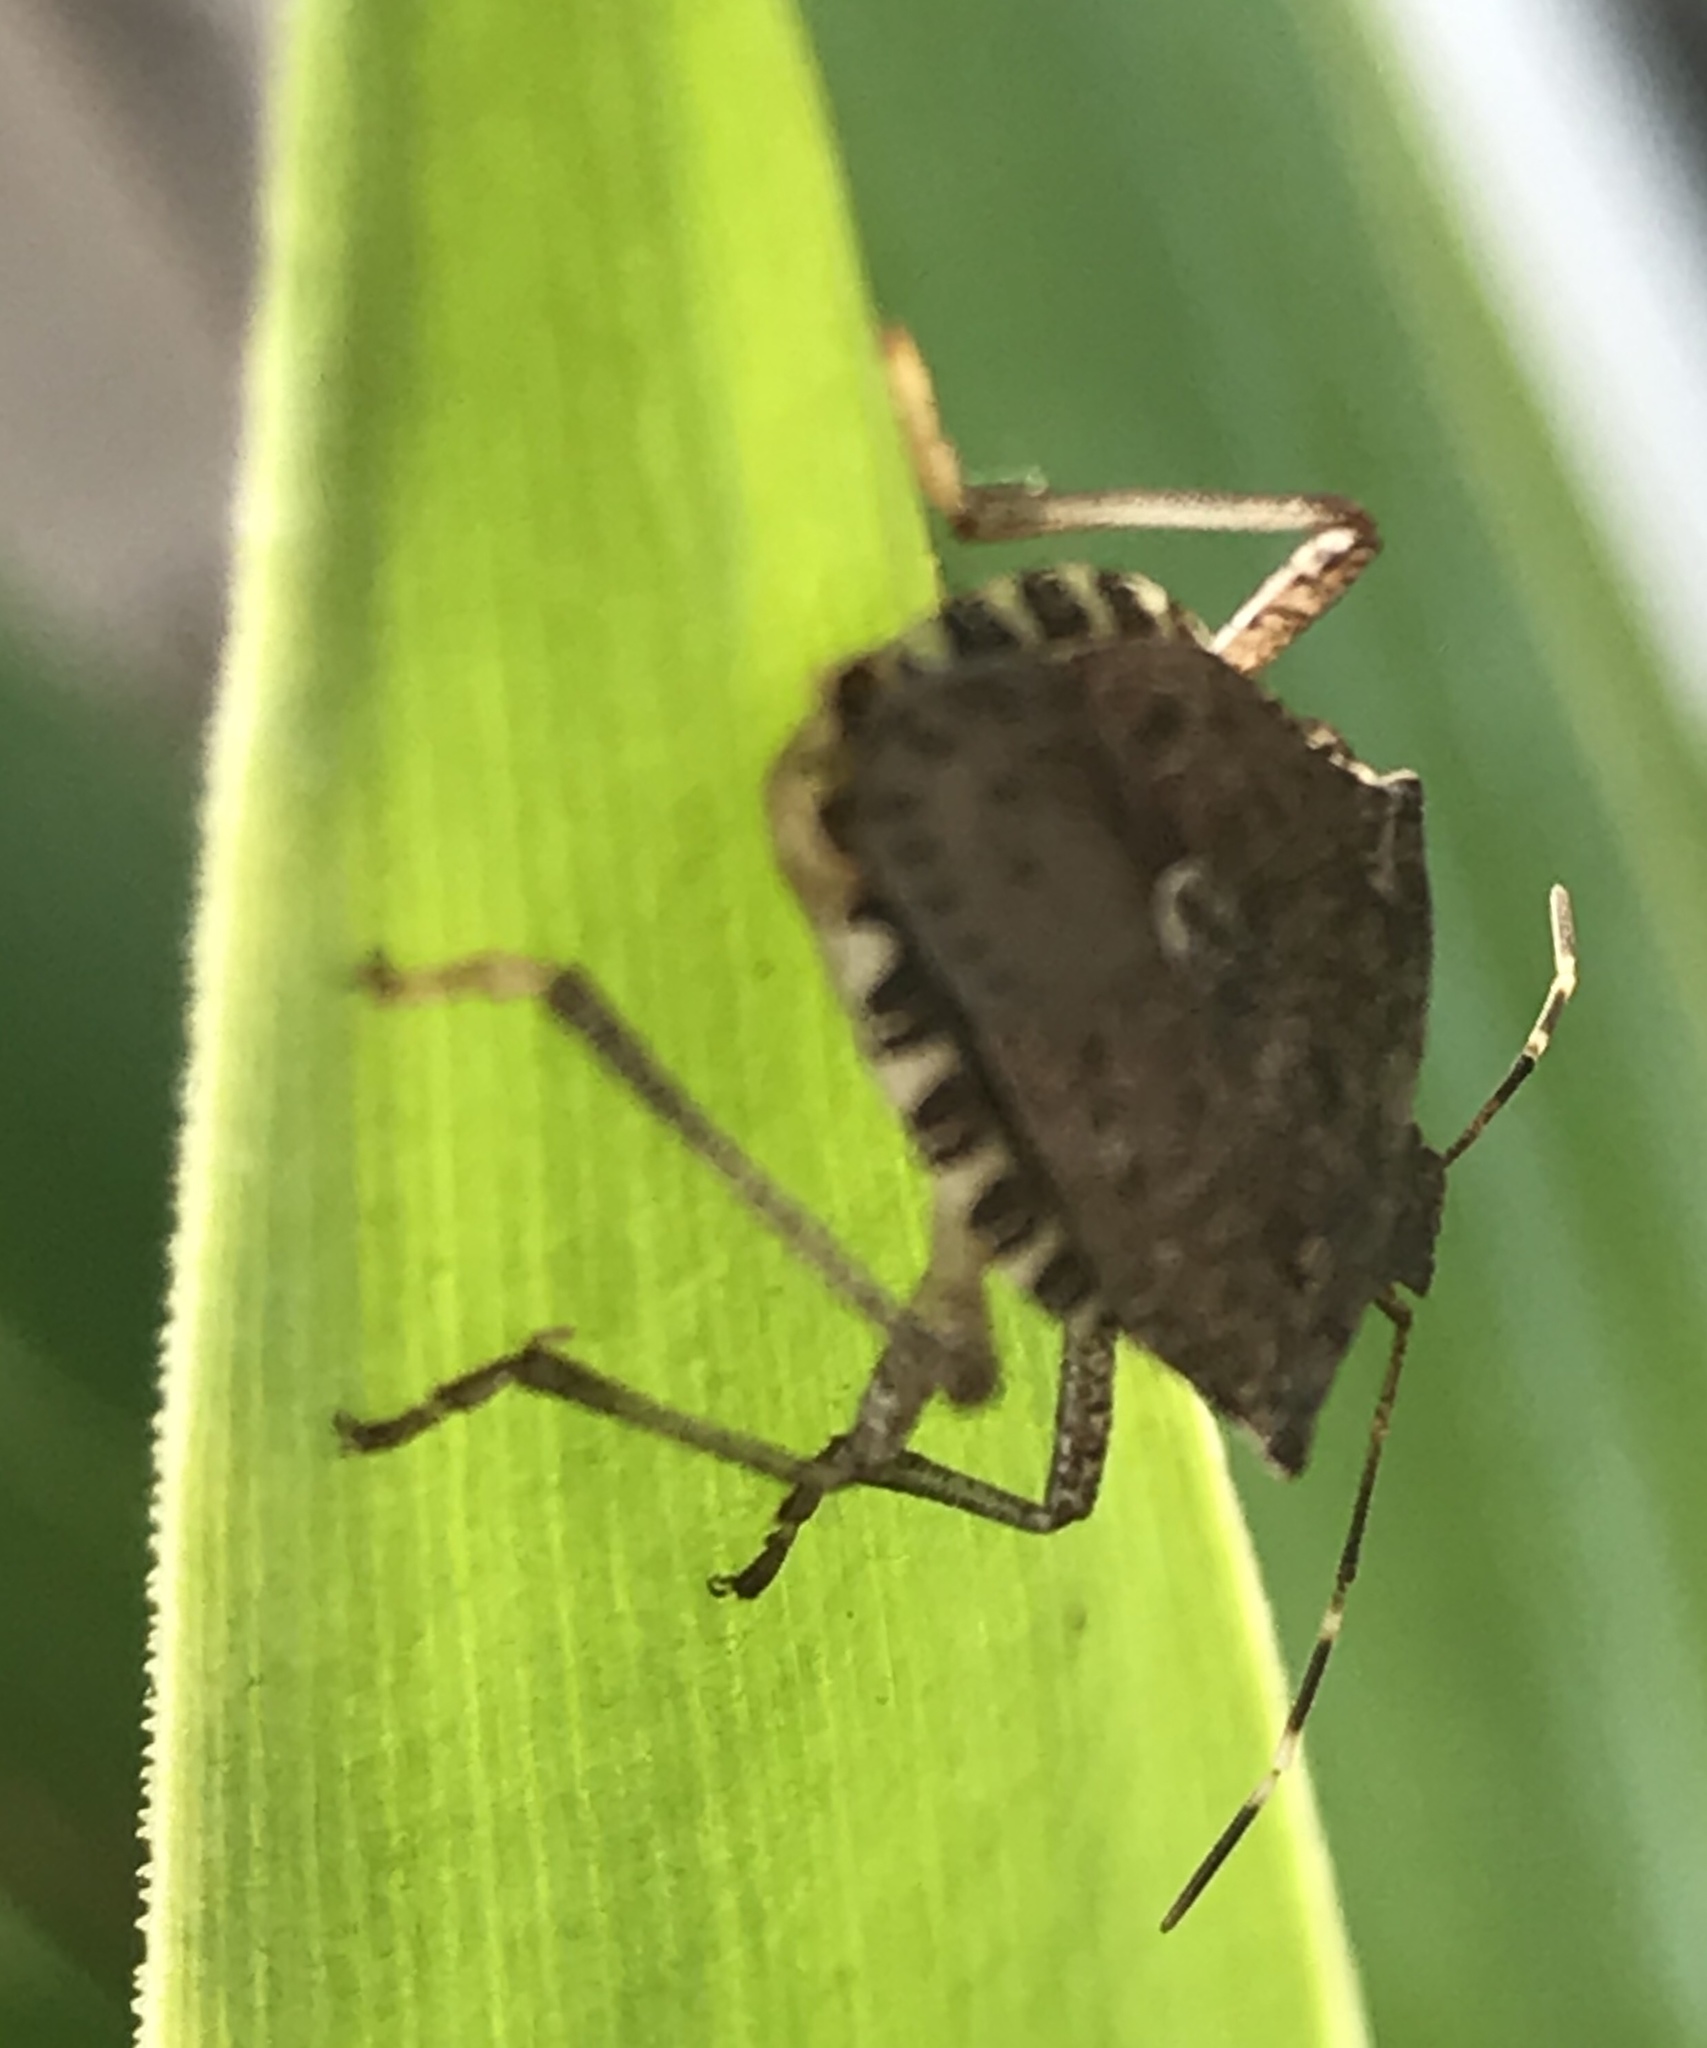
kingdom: Animalia
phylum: Arthropoda
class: Insecta
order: Hemiptera
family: Pentatomidae
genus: Halyomorpha
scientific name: Halyomorpha halys
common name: Brown marmorated stink bug
